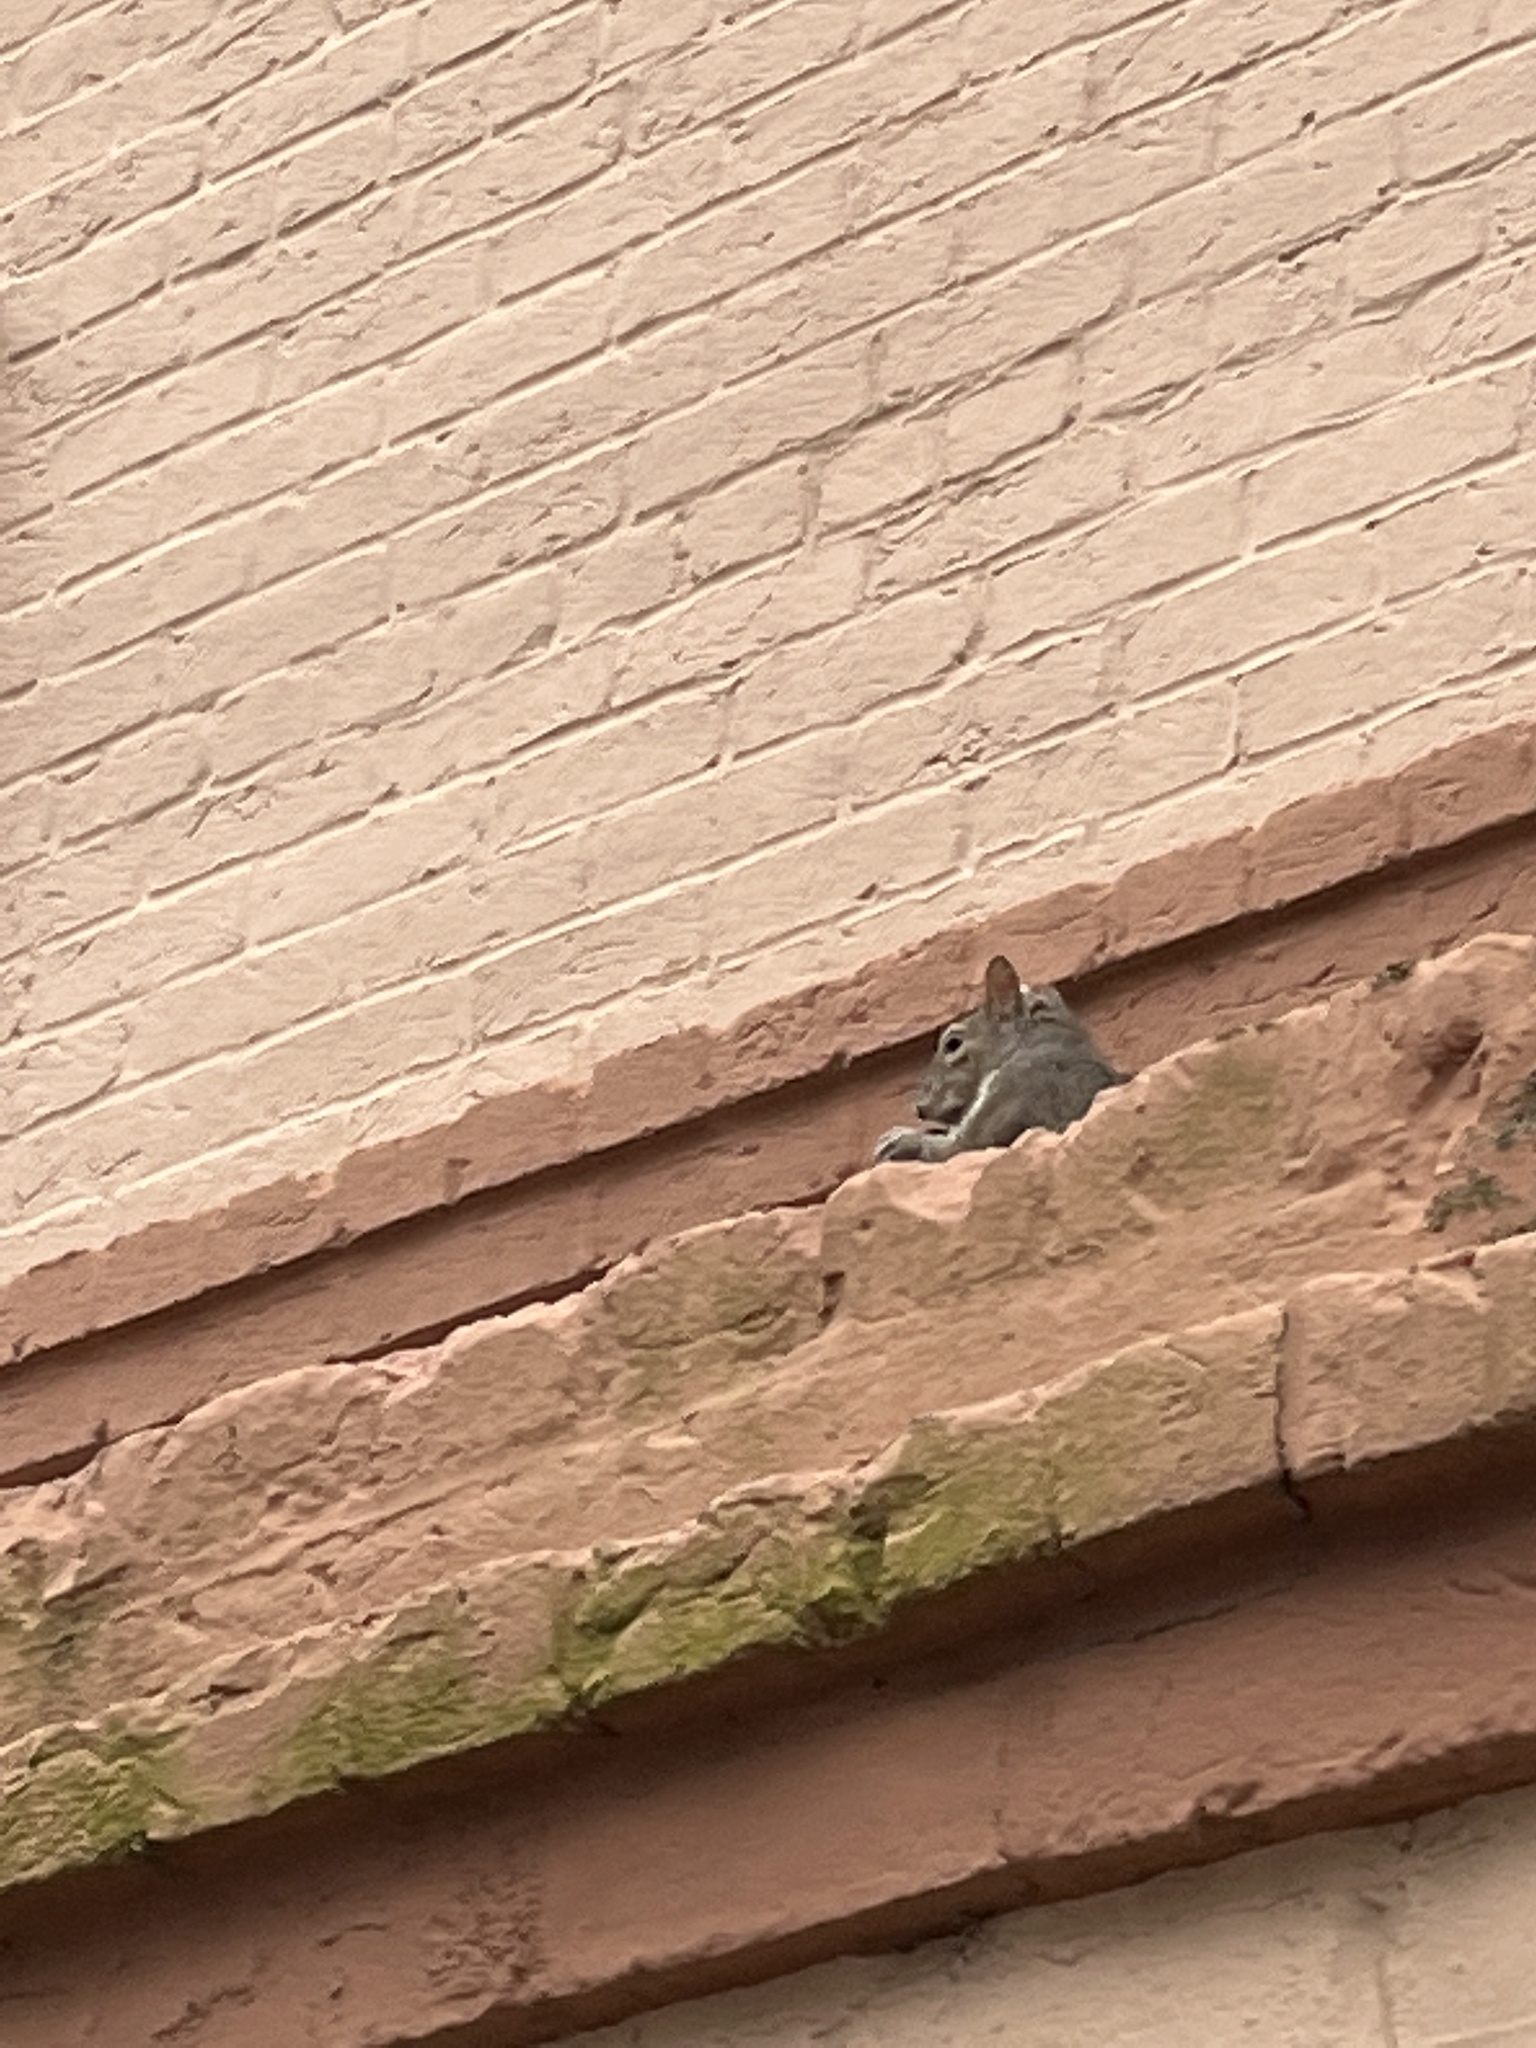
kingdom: Animalia
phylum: Chordata
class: Mammalia
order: Rodentia
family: Sciuridae
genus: Sciurus
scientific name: Sciurus carolinensis
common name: Eastern gray squirrel
